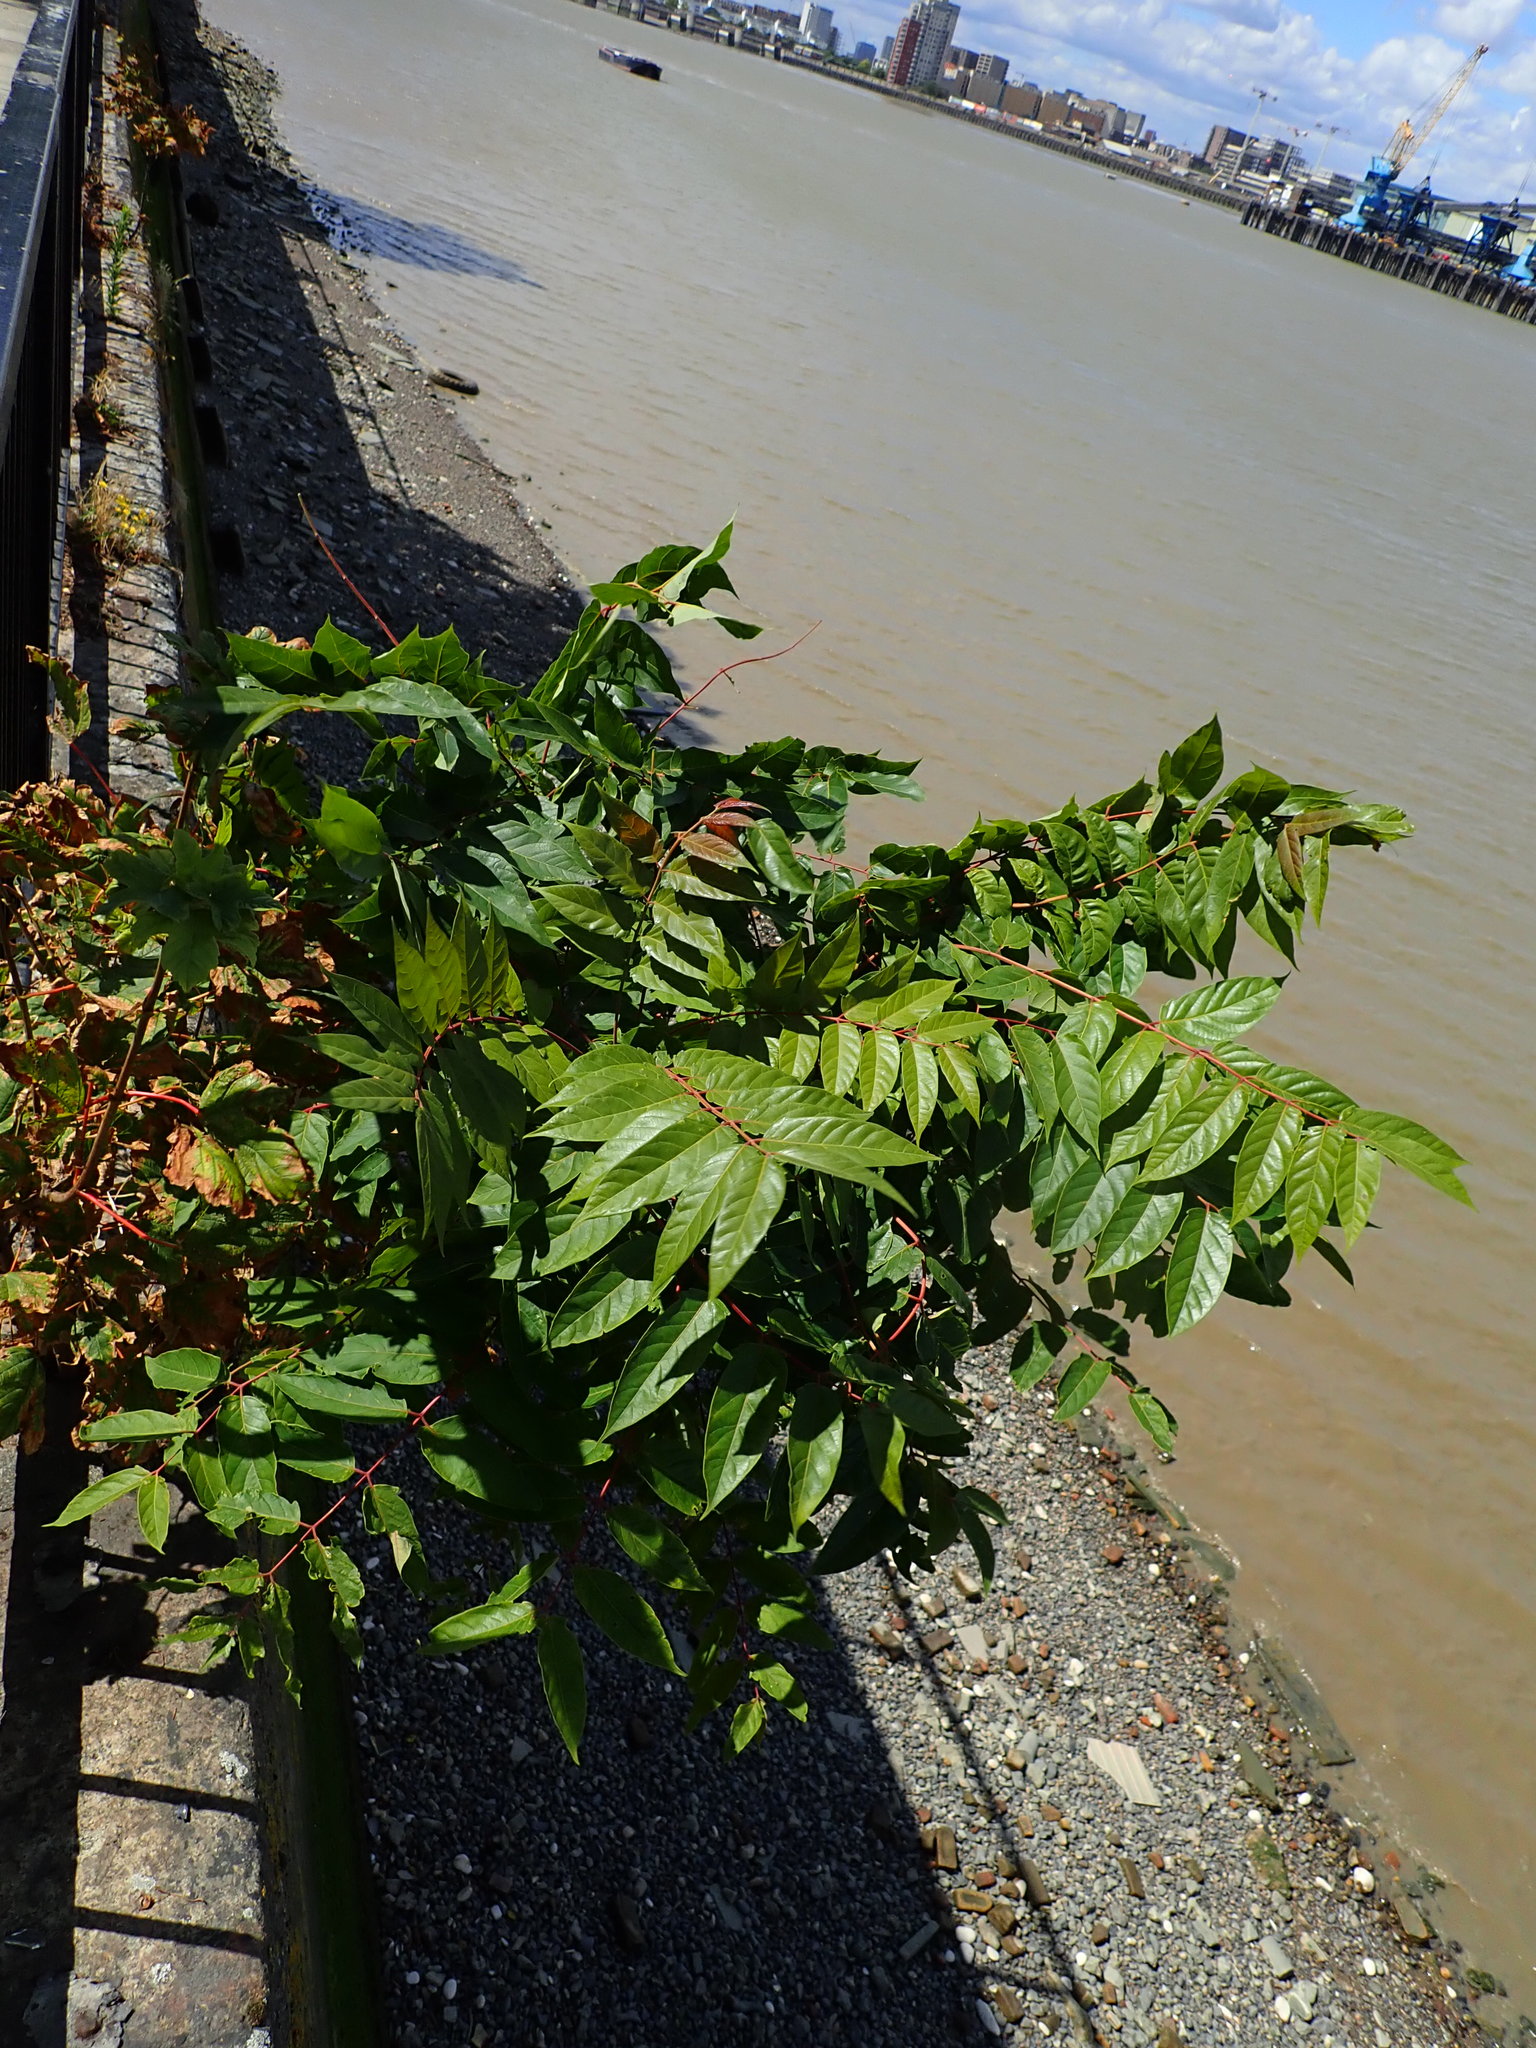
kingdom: Plantae
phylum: Tracheophyta
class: Magnoliopsida
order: Sapindales
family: Simaroubaceae
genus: Ailanthus
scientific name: Ailanthus altissima
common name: Tree-of-heaven
